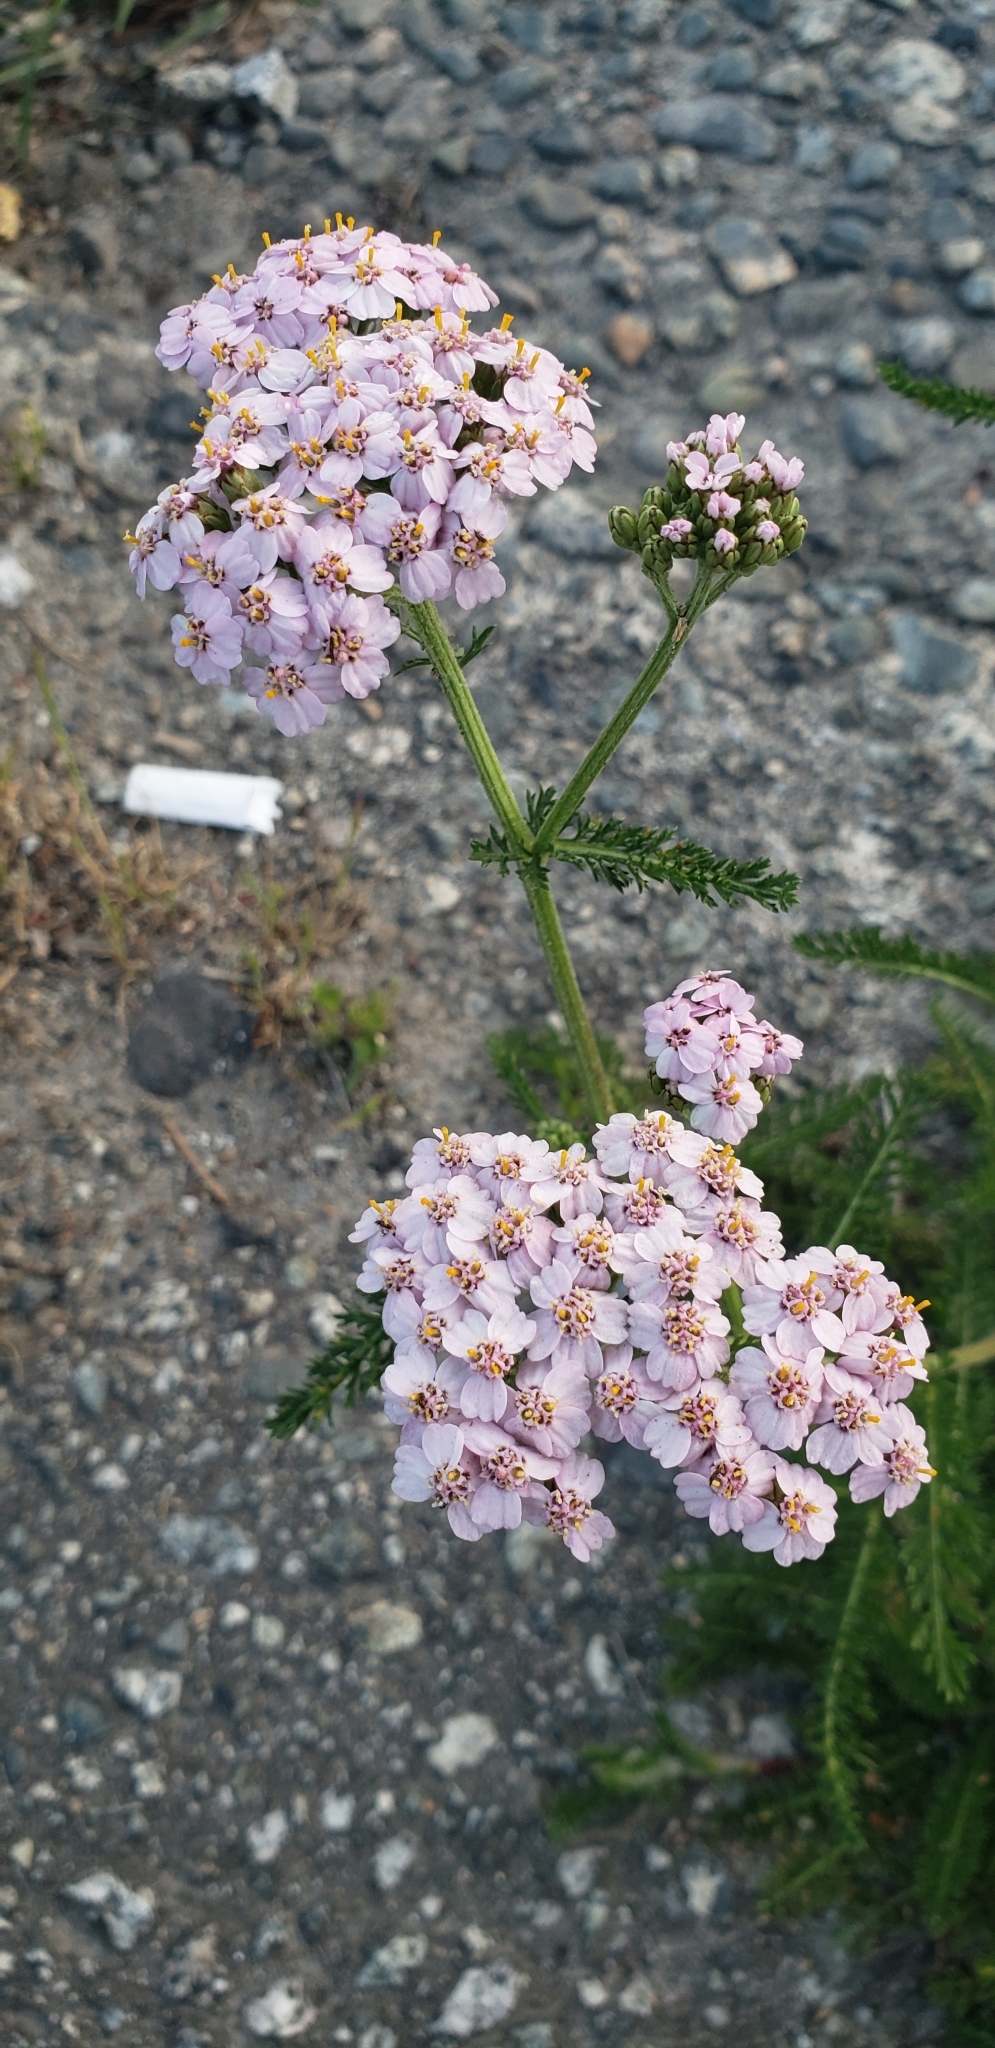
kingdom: Plantae
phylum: Tracheophyta
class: Magnoliopsida
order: Asterales
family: Asteraceae
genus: Achillea
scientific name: Achillea millefolium
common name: Yarrow
